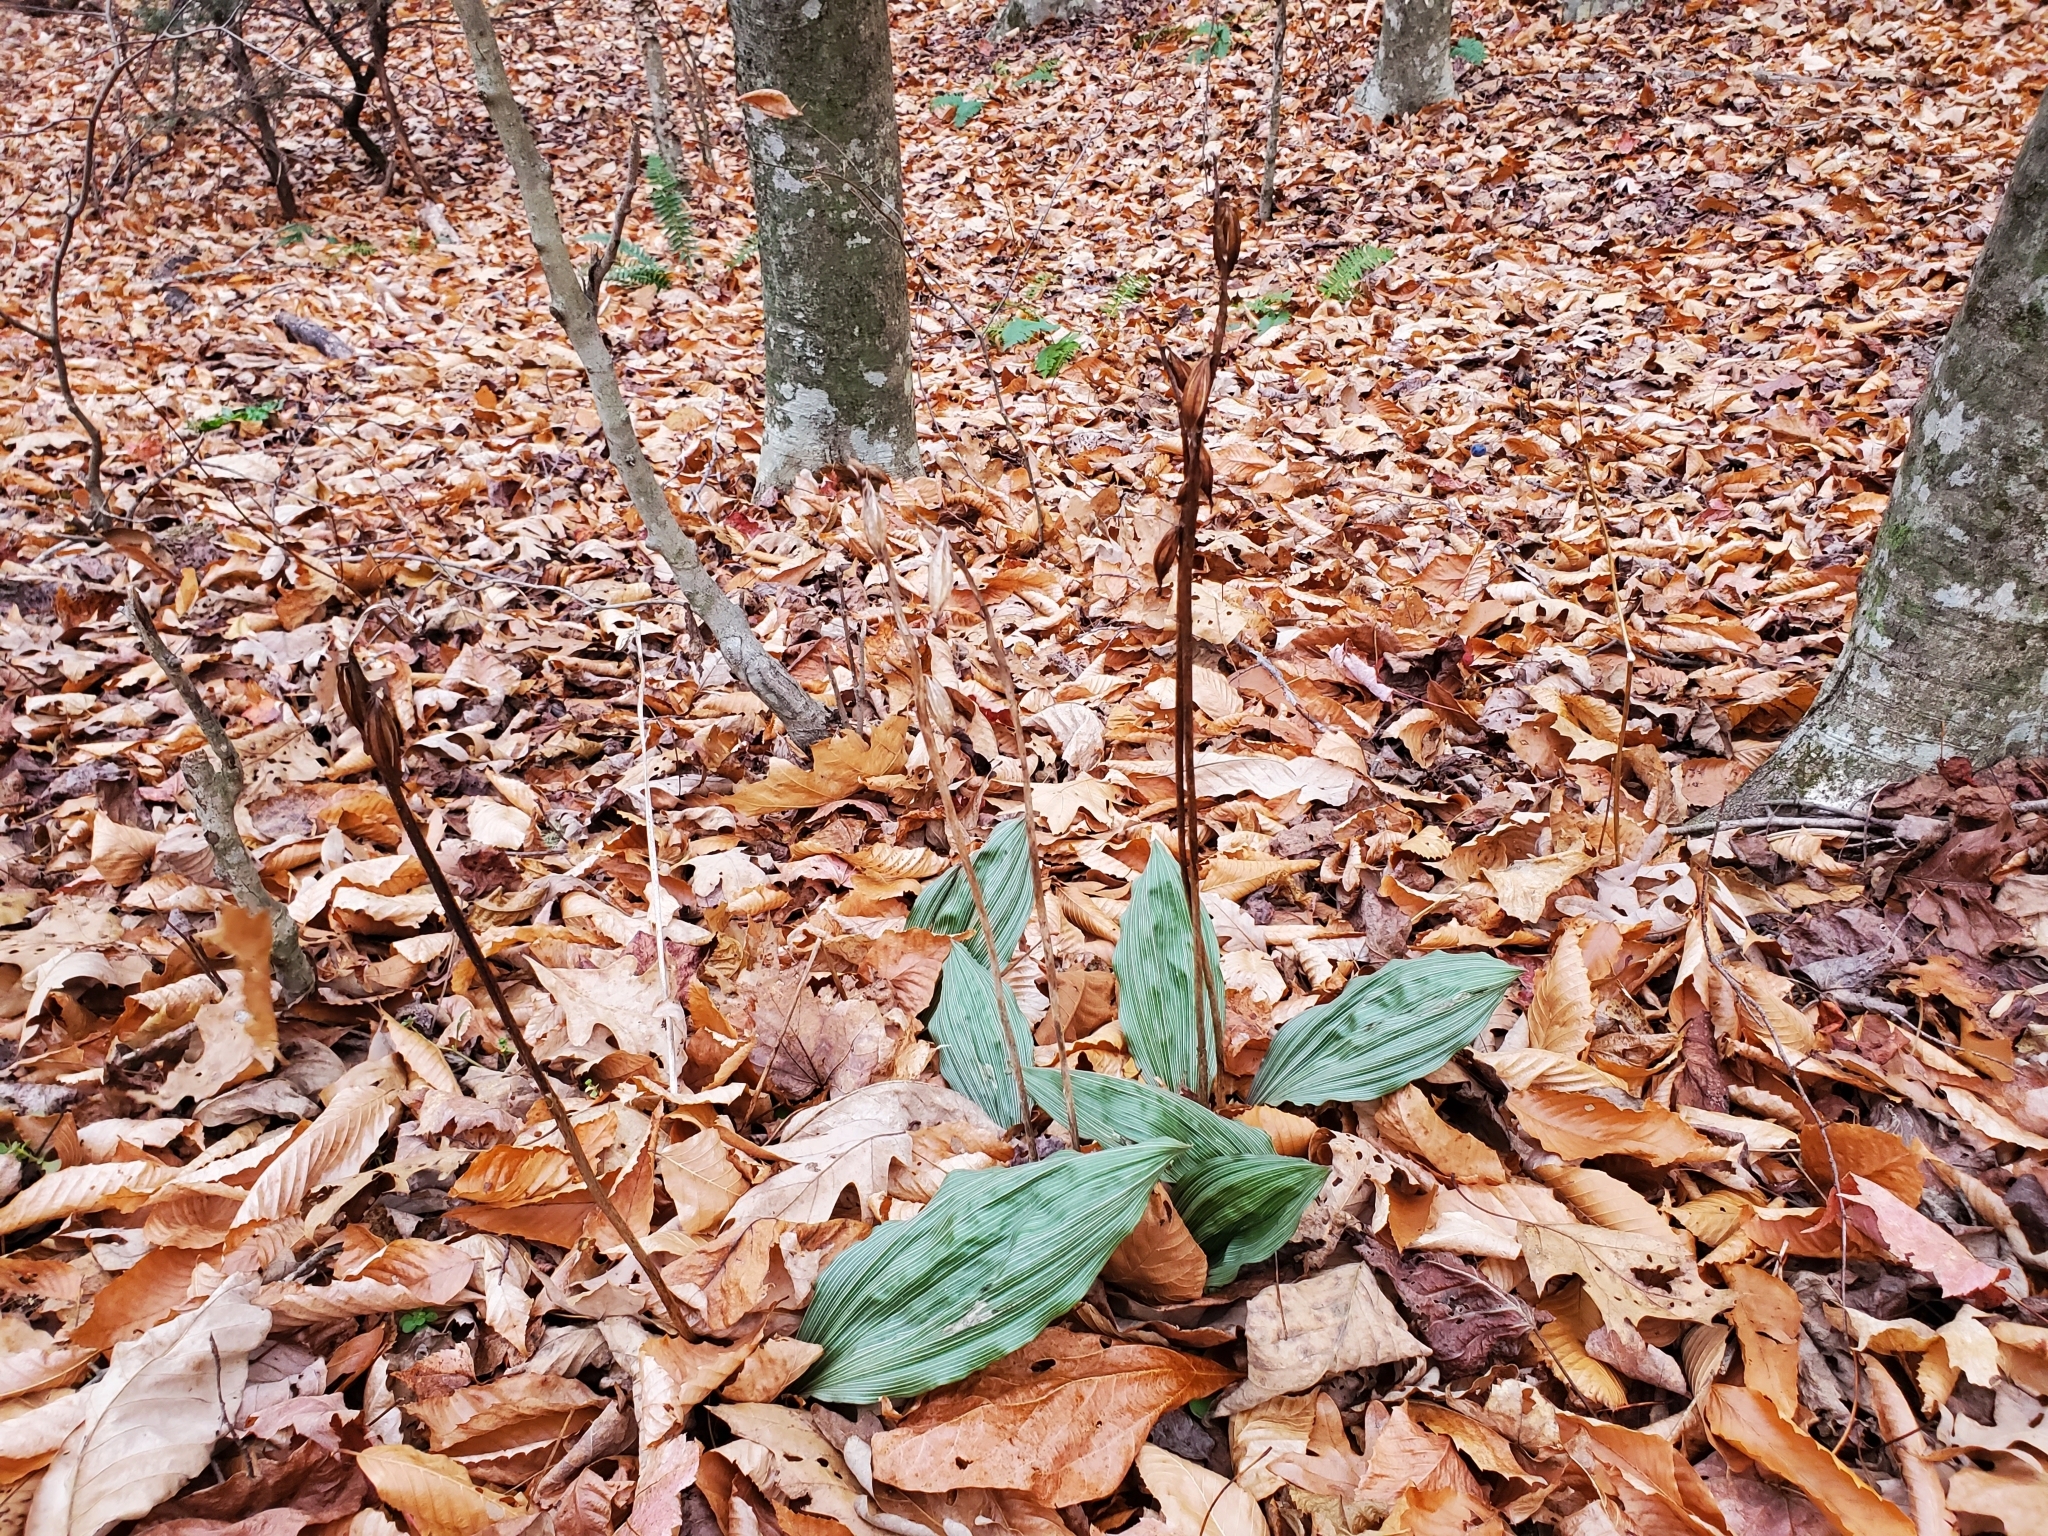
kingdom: Plantae
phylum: Tracheophyta
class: Liliopsida
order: Asparagales
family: Orchidaceae
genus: Aplectrum
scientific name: Aplectrum hyemale
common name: Adam-and-eve
